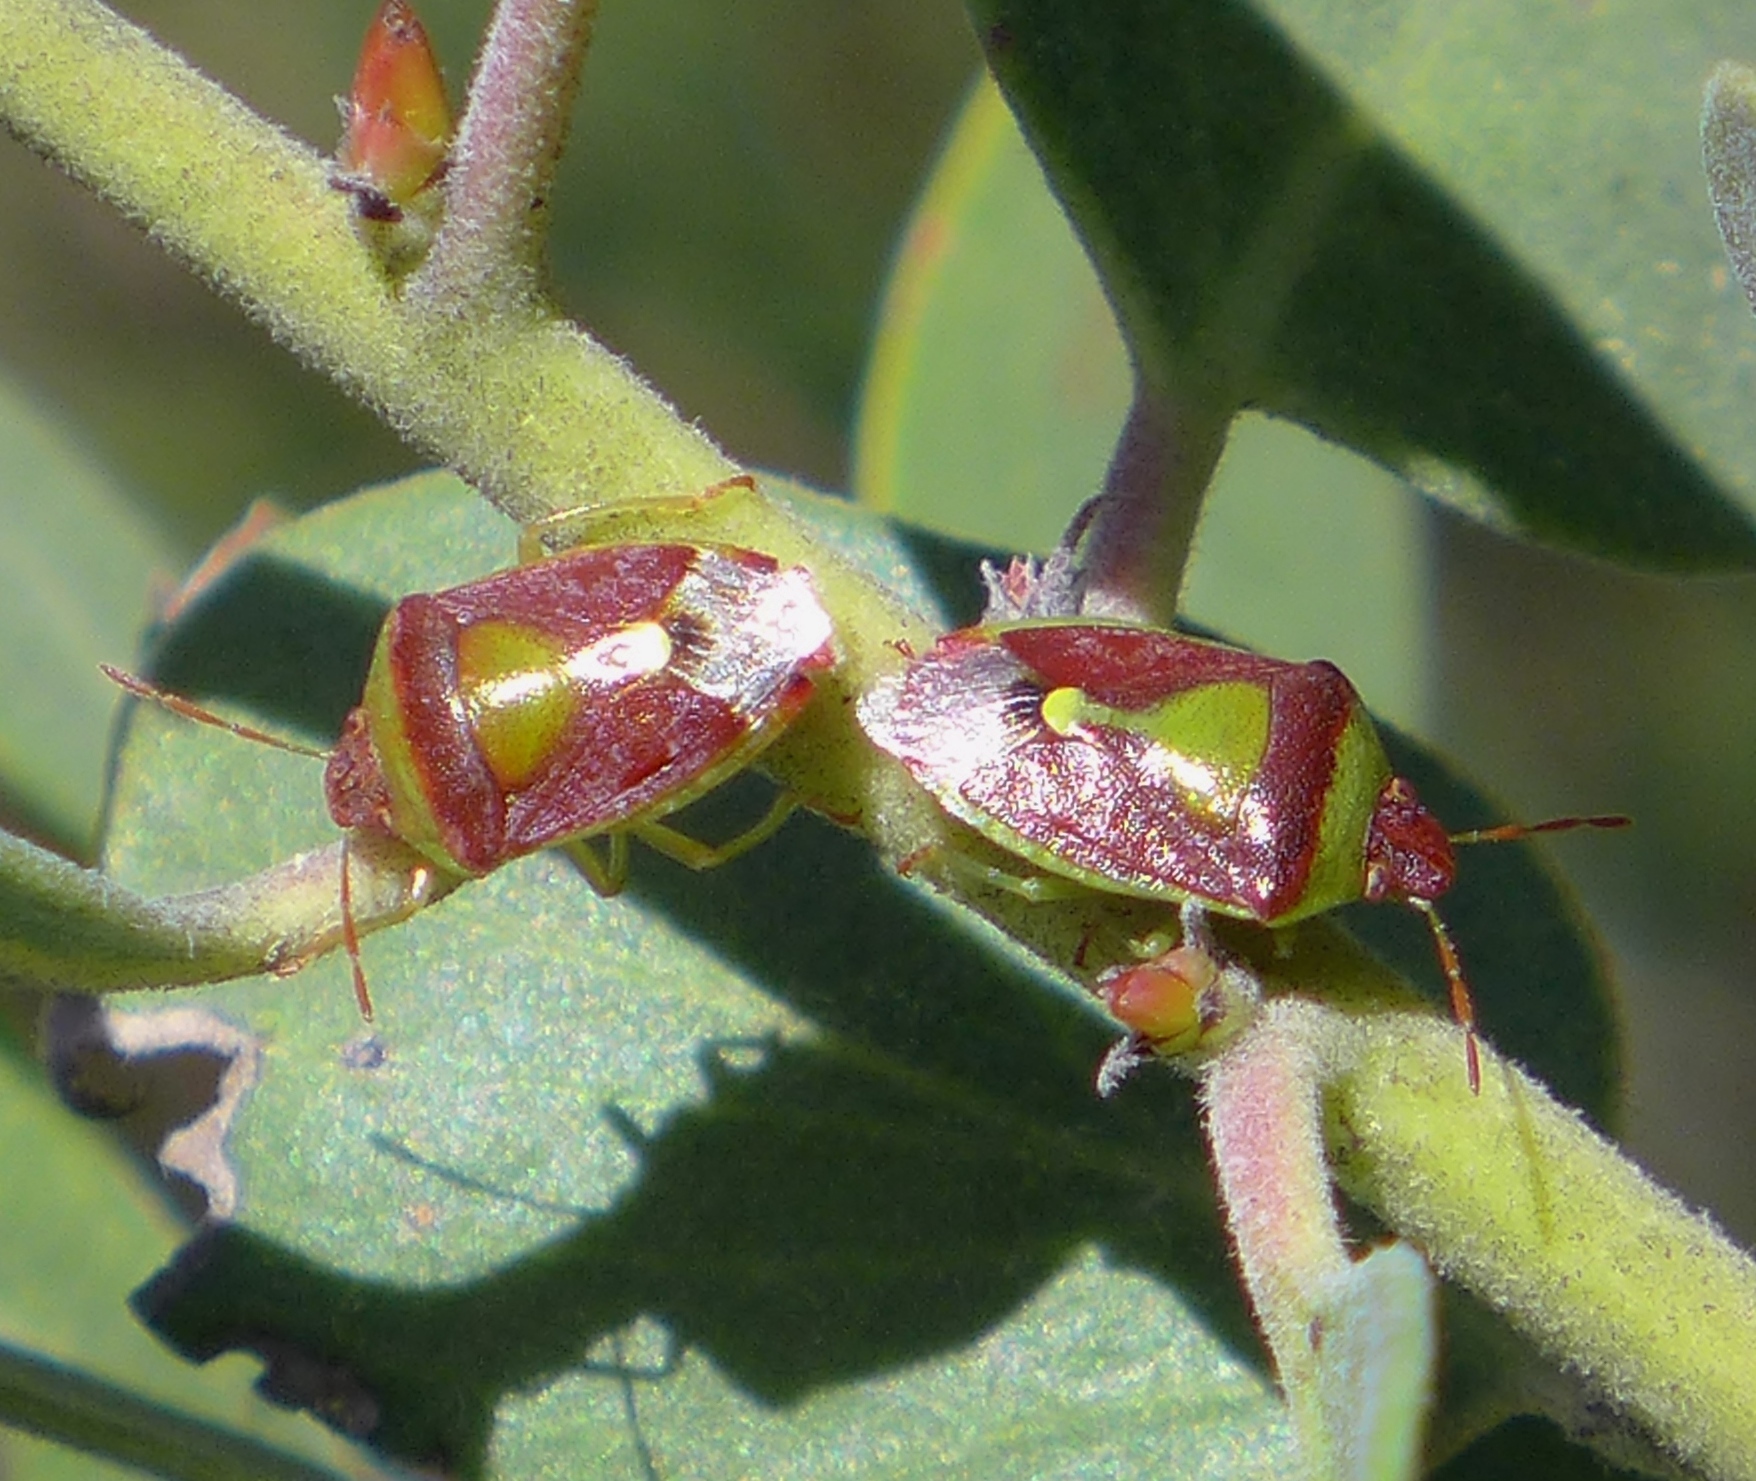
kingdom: Animalia
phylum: Arthropoda
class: Insecta
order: Hemiptera
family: Pentatomidae
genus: Banasa
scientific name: Banasa dimidiata
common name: Green burgundy stink bug
